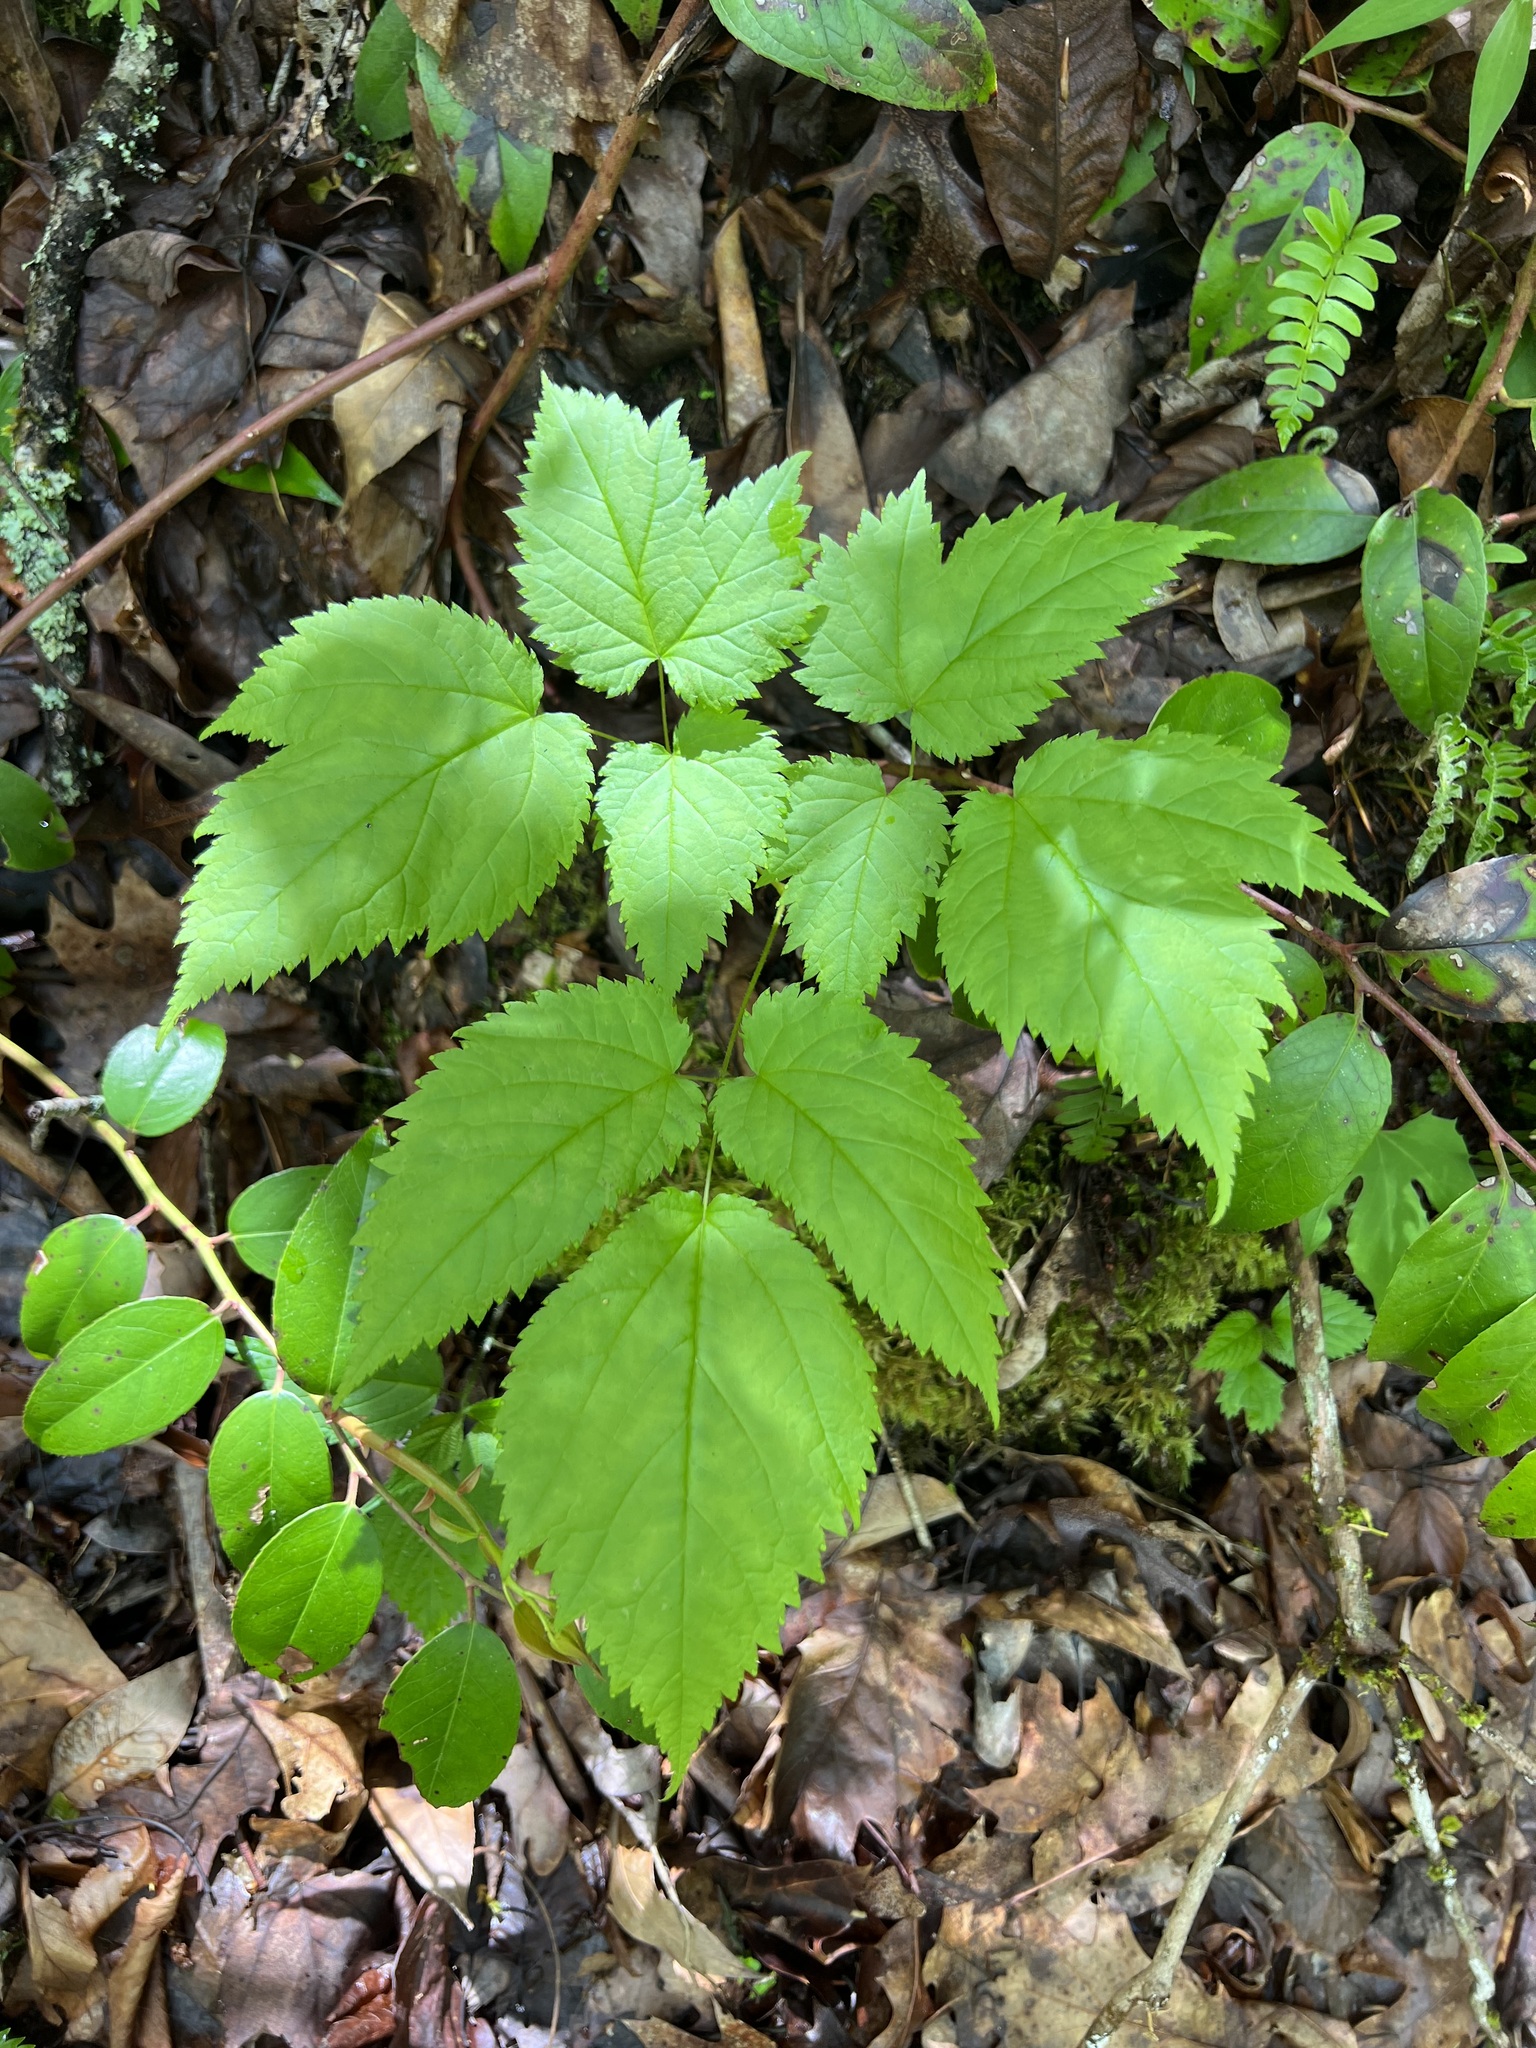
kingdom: Plantae
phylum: Tracheophyta
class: Magnoliopsida
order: Saxifragales
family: Saxifragaceae
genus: Astilbe
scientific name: Astilbe biternata
